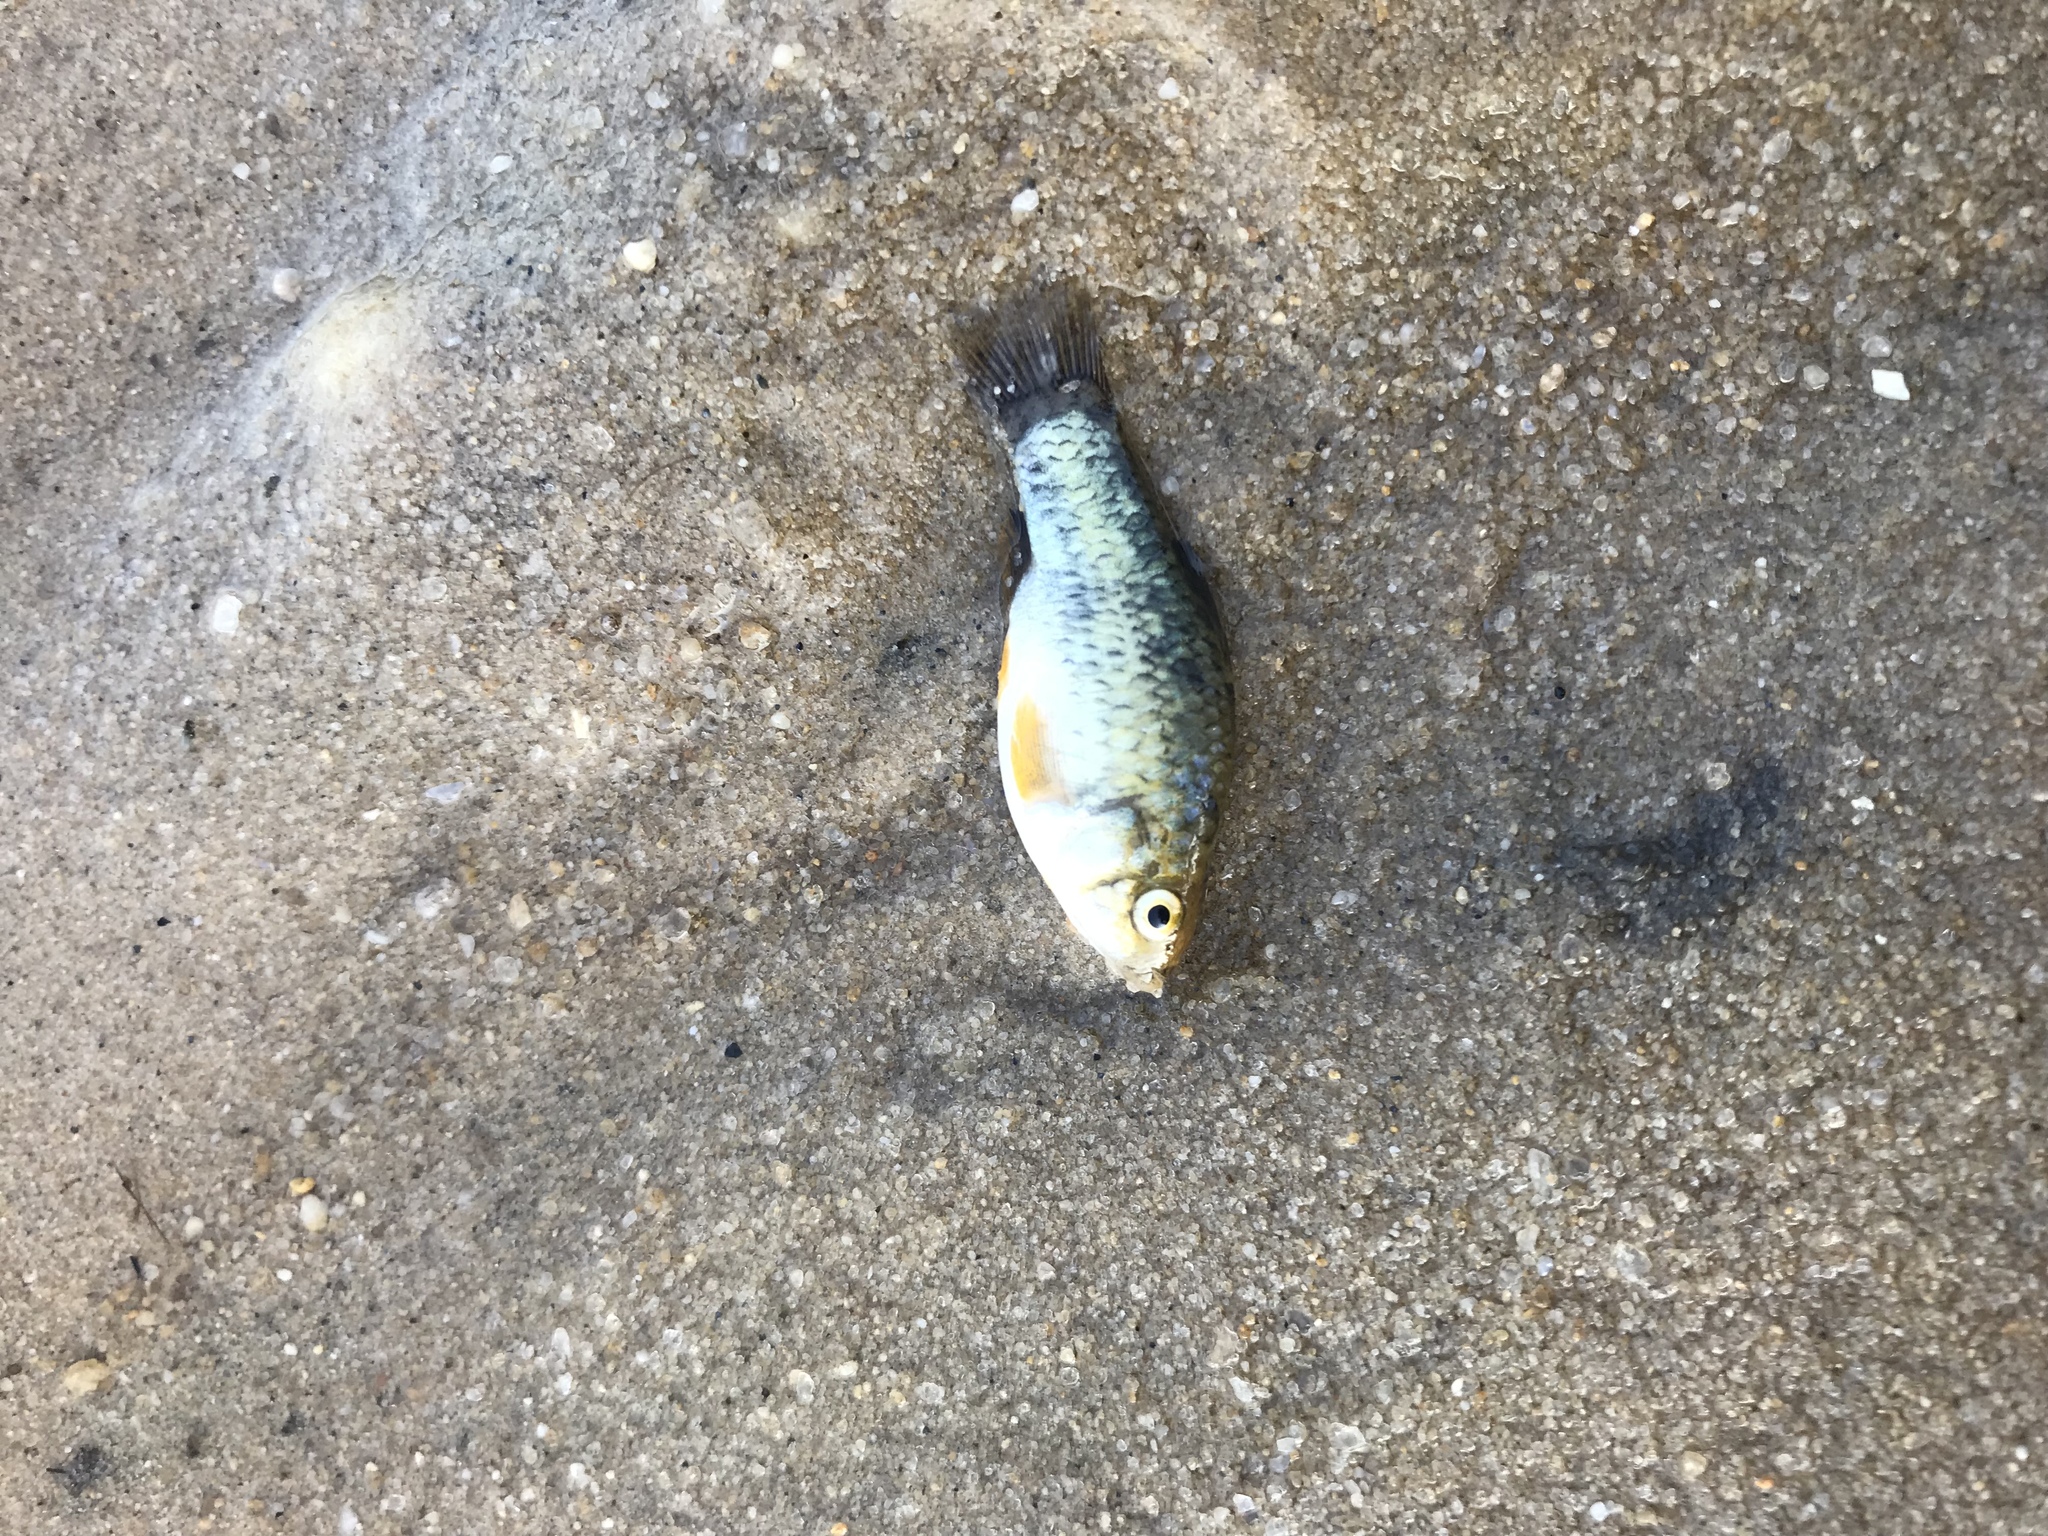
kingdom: Animalia
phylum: Chordata
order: Cyprinodontiformes
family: Cyprinodontidae
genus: Cyprinodon
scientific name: Cyprinodon variegatus
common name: Sheepshead minnow
